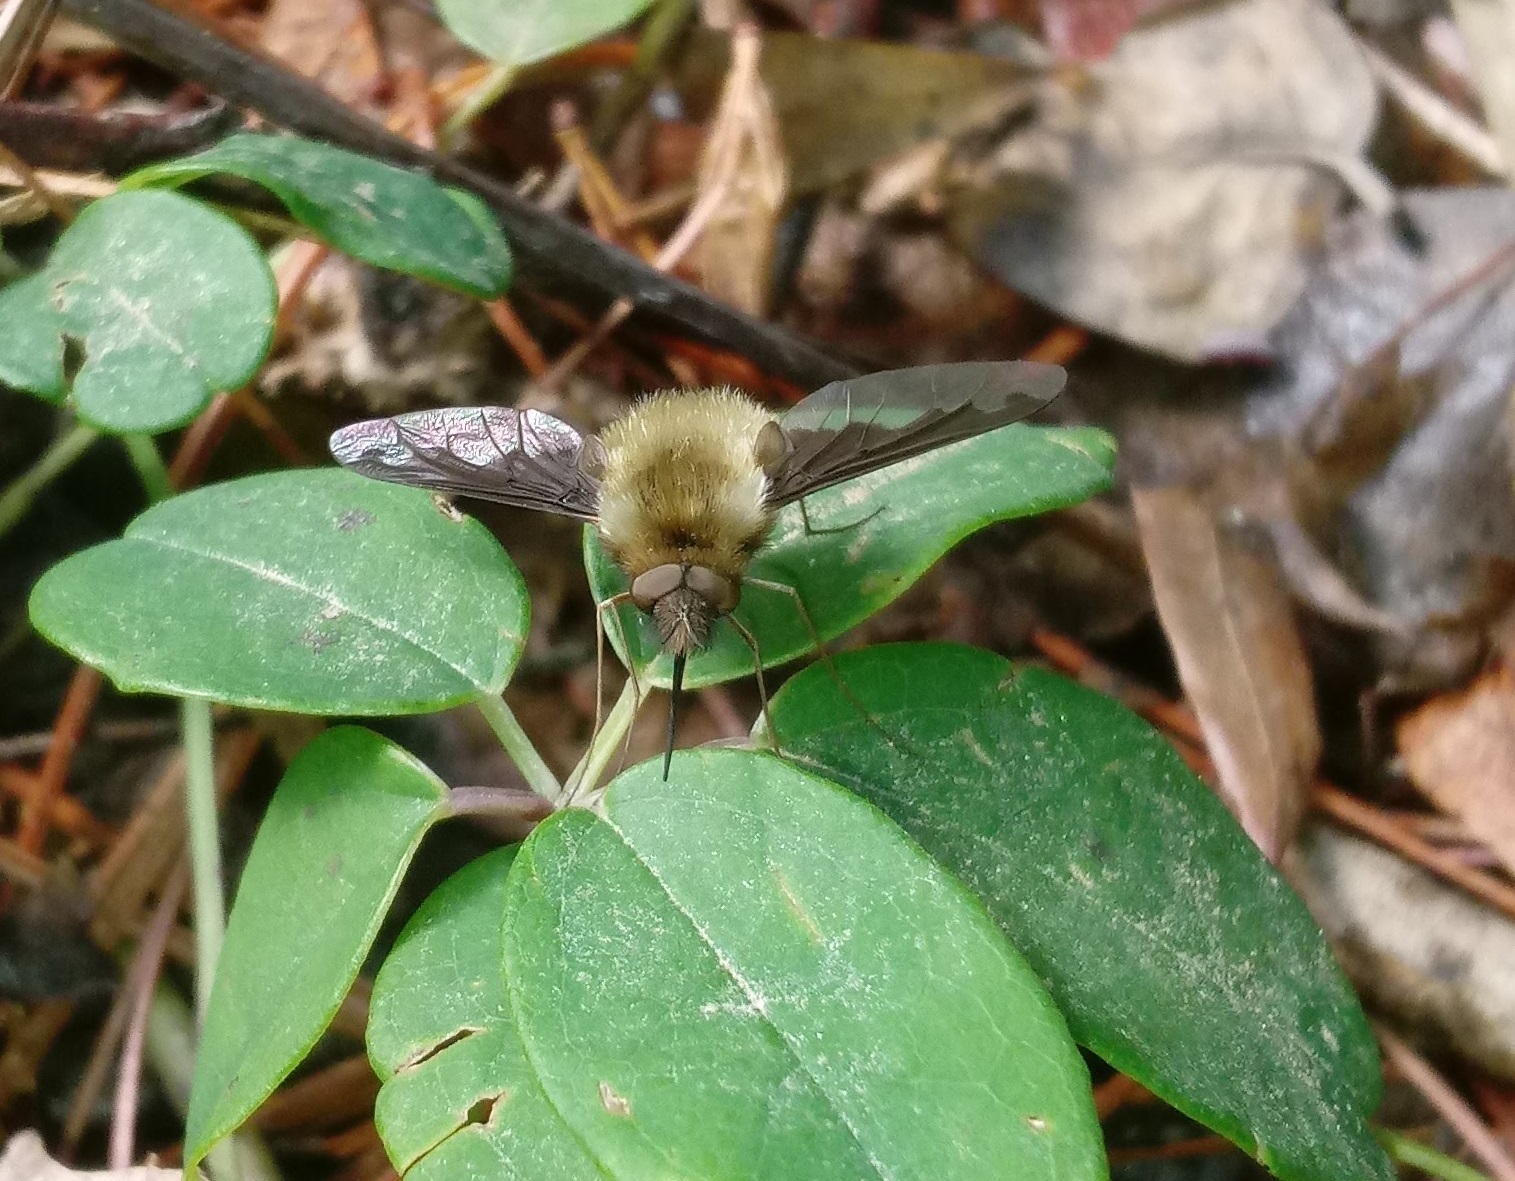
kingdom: Animalia
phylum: Arthropoda
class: Insecta
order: Diptera
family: Bombyliidae
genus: Bombylius
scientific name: Bombylius major
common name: Bee fly
